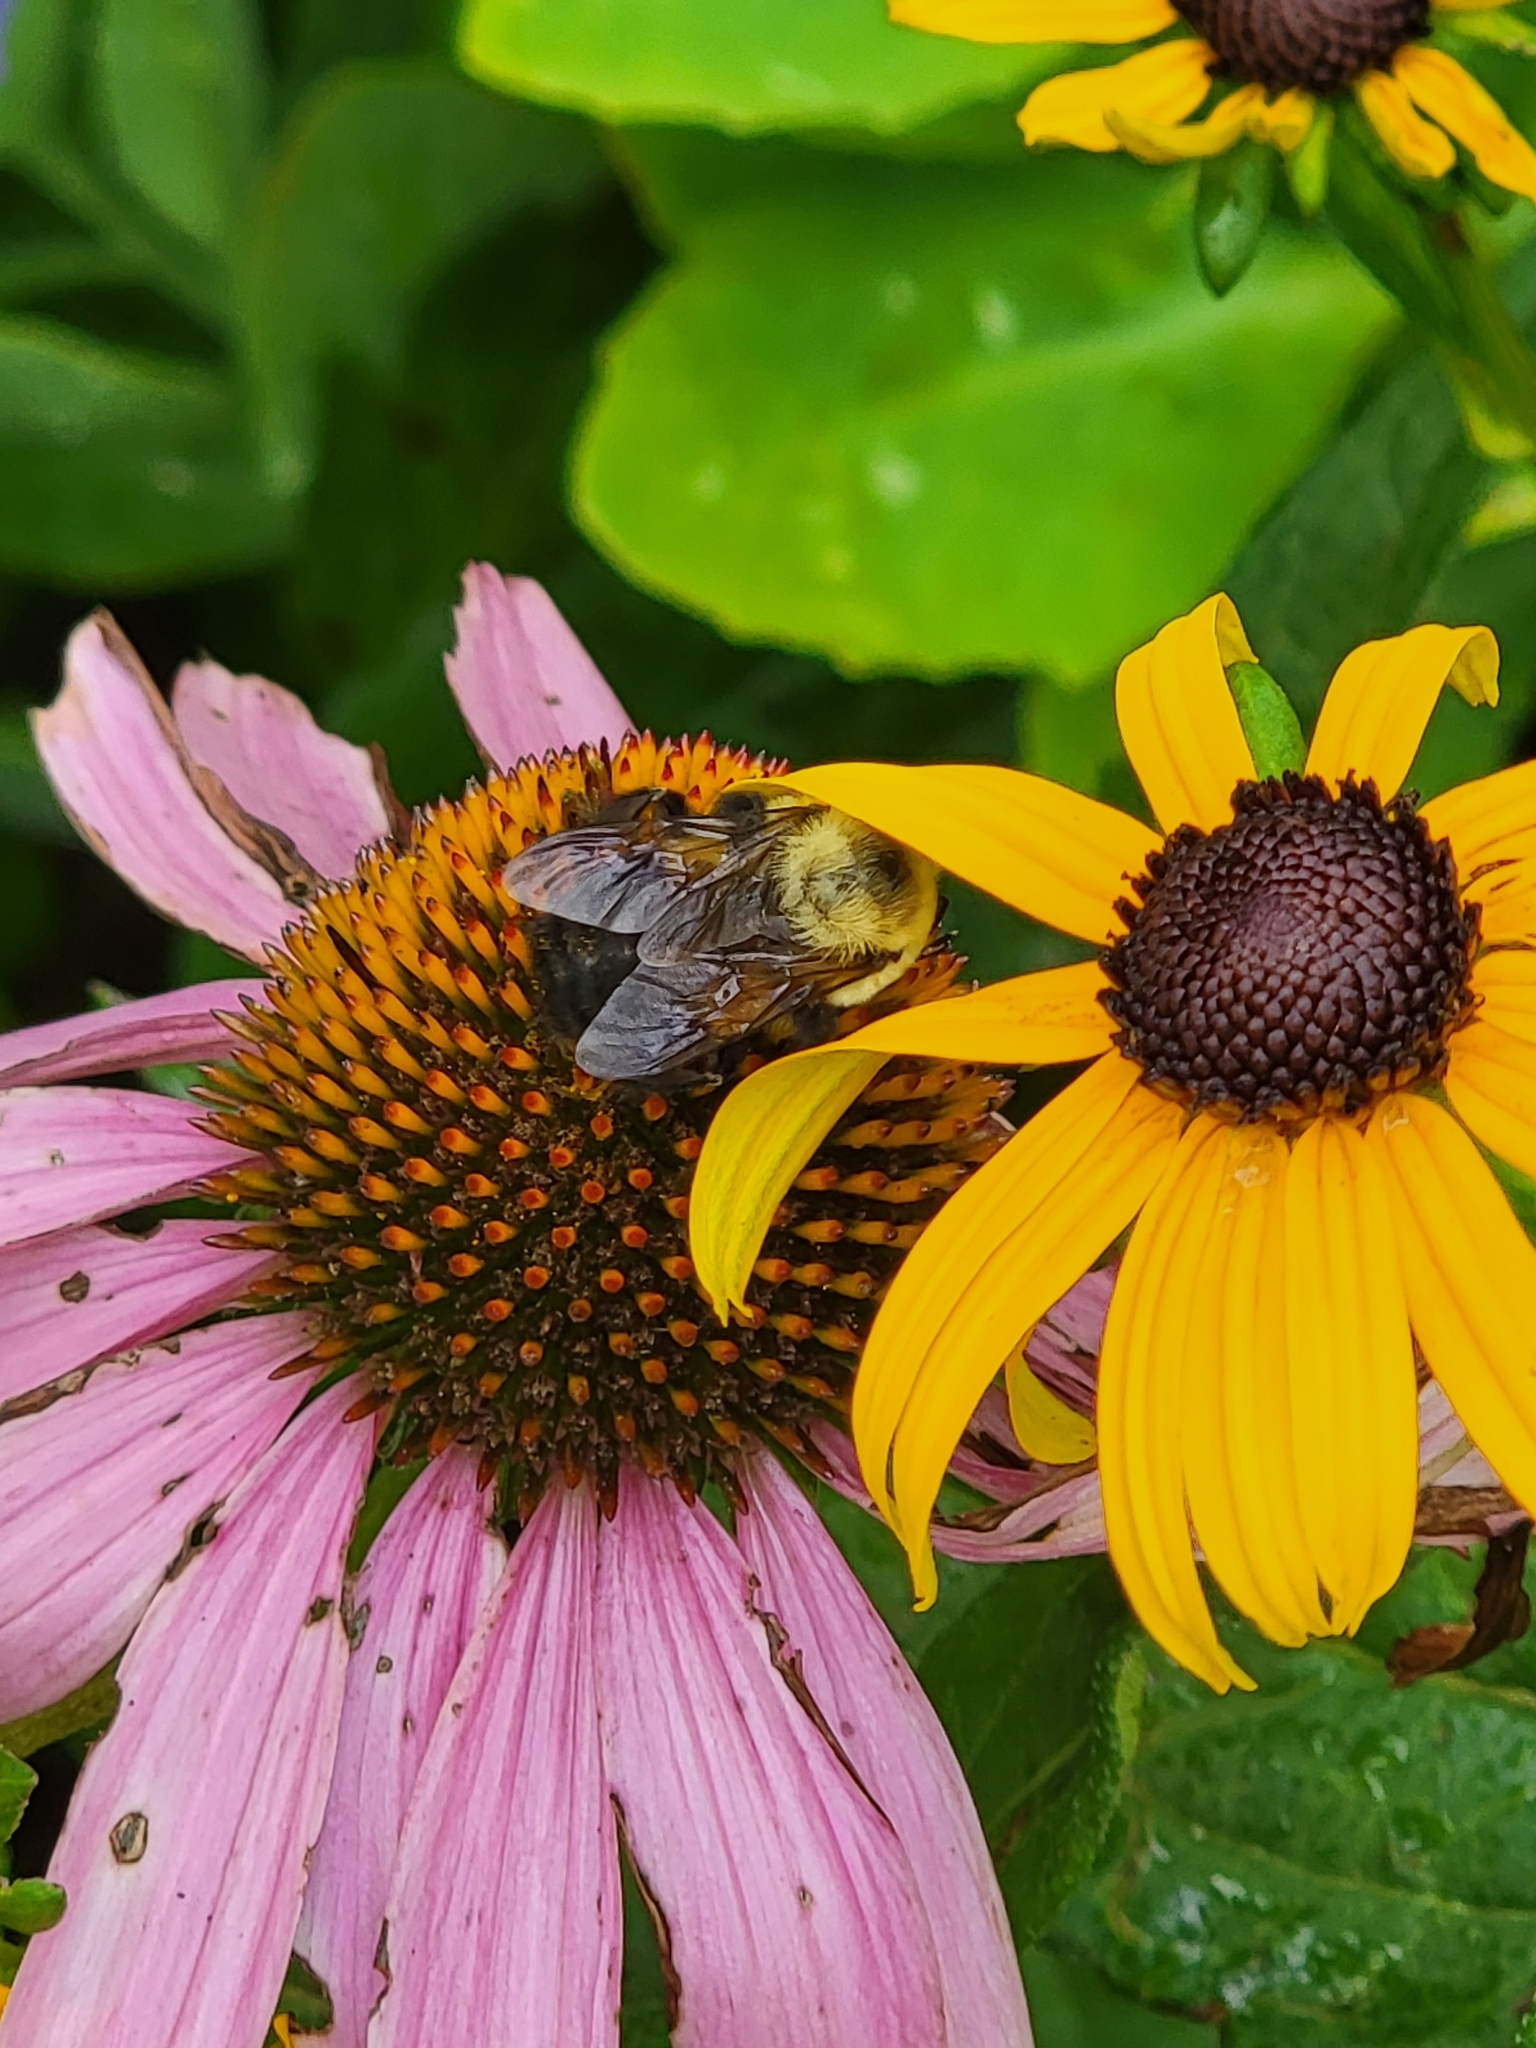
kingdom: Animalia
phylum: Arthropoda
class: Insecta
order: Hymenoptera
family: Apidae
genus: Bombus
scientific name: Bombus griseocollis
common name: Brown-belted bumble bee
